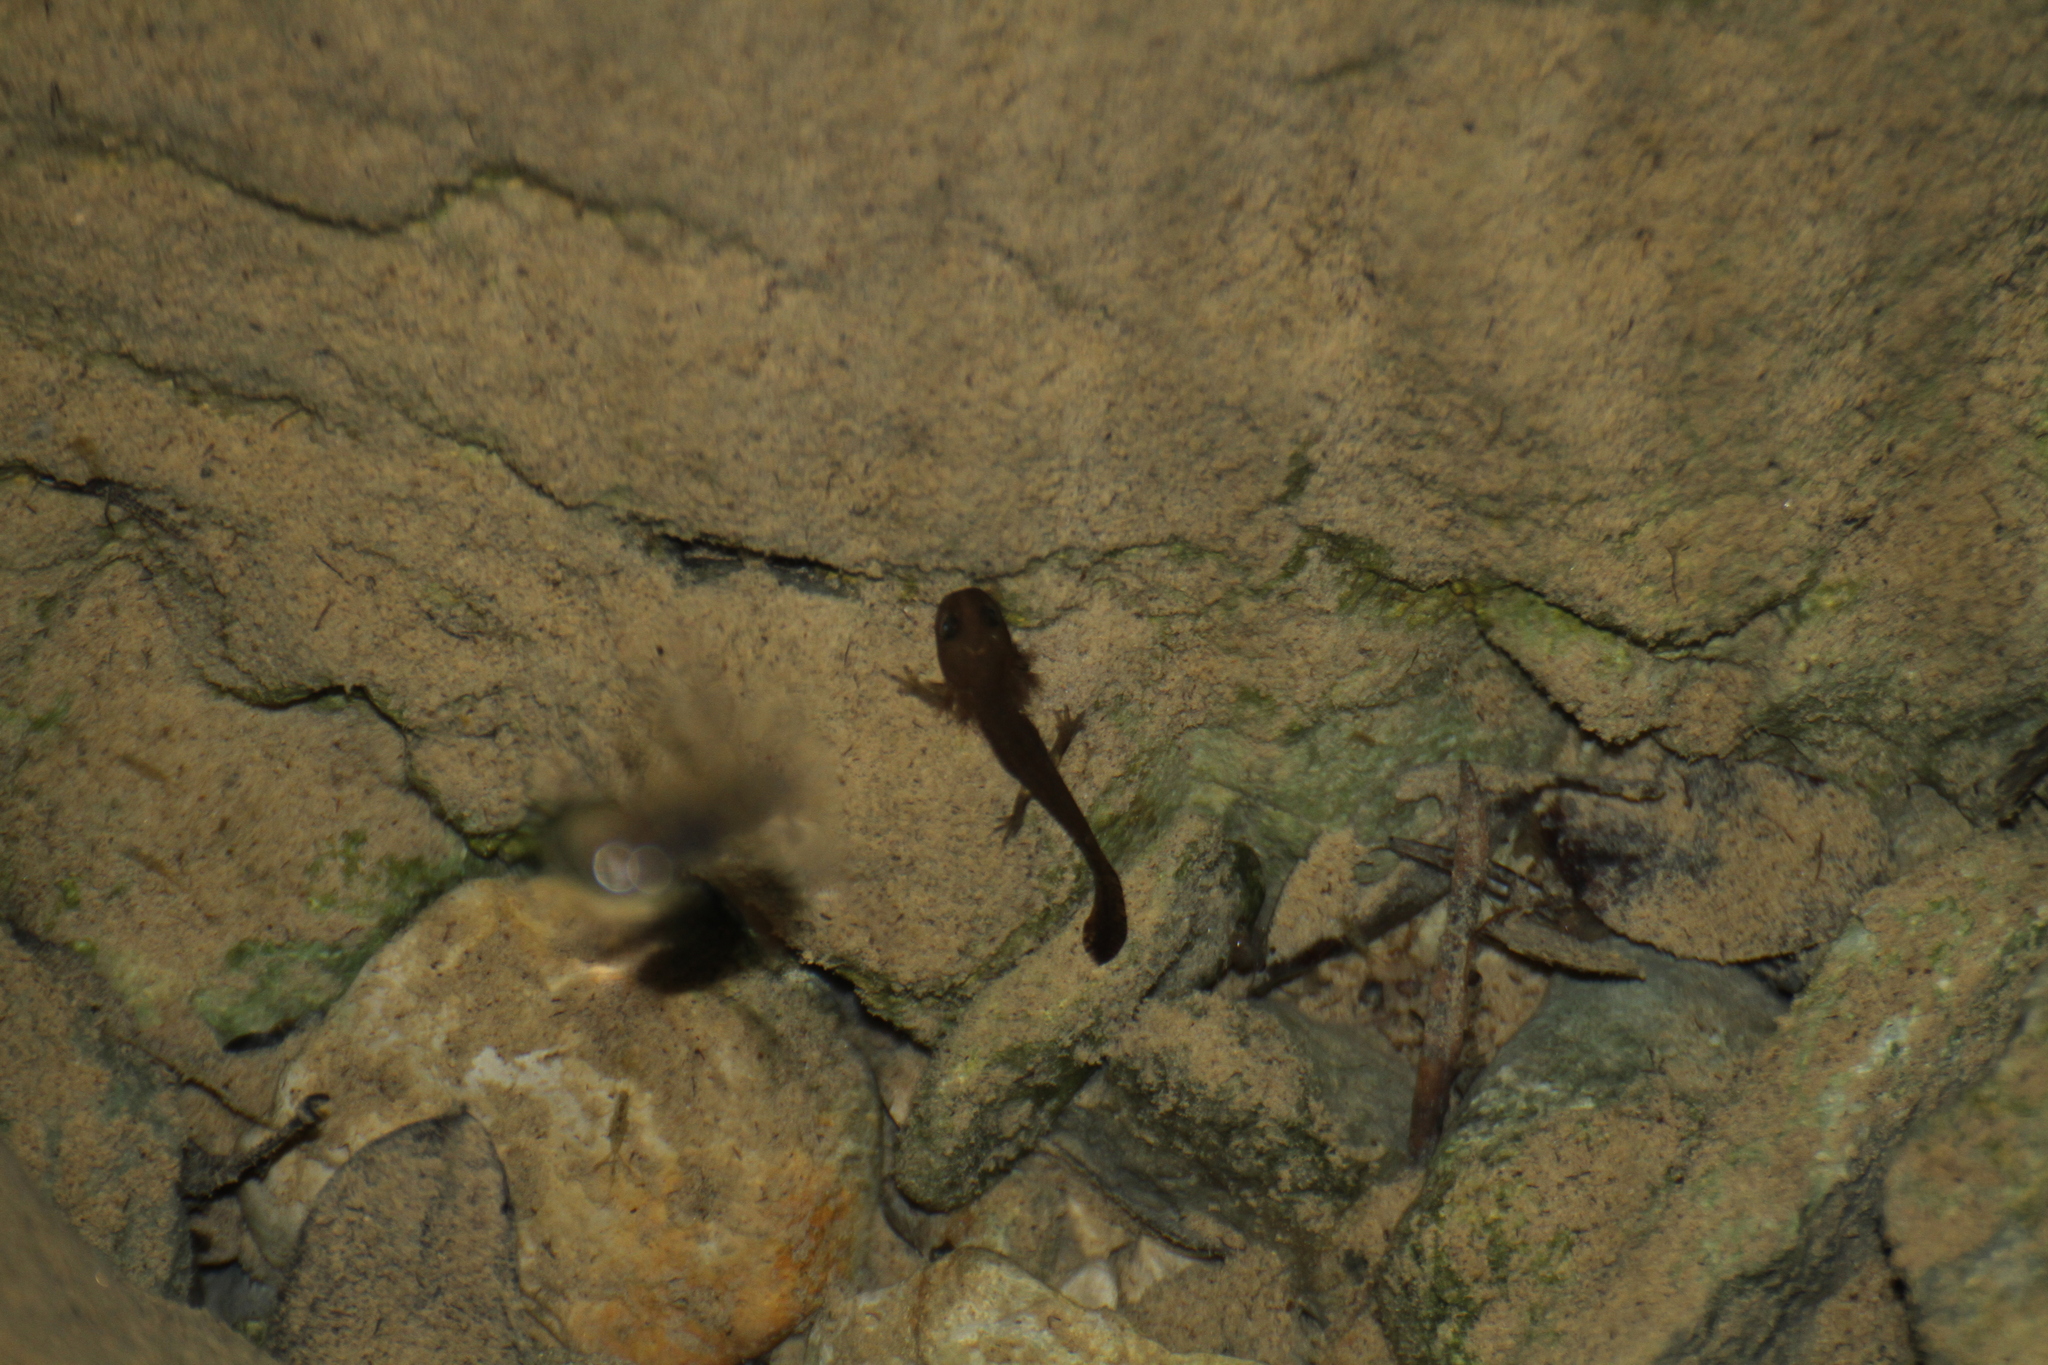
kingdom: Animalia
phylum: Chordata
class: Amphibia
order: Caudata
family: Salamandridae
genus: Salamandra
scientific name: Salamandra salamandra
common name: Fire salamander
